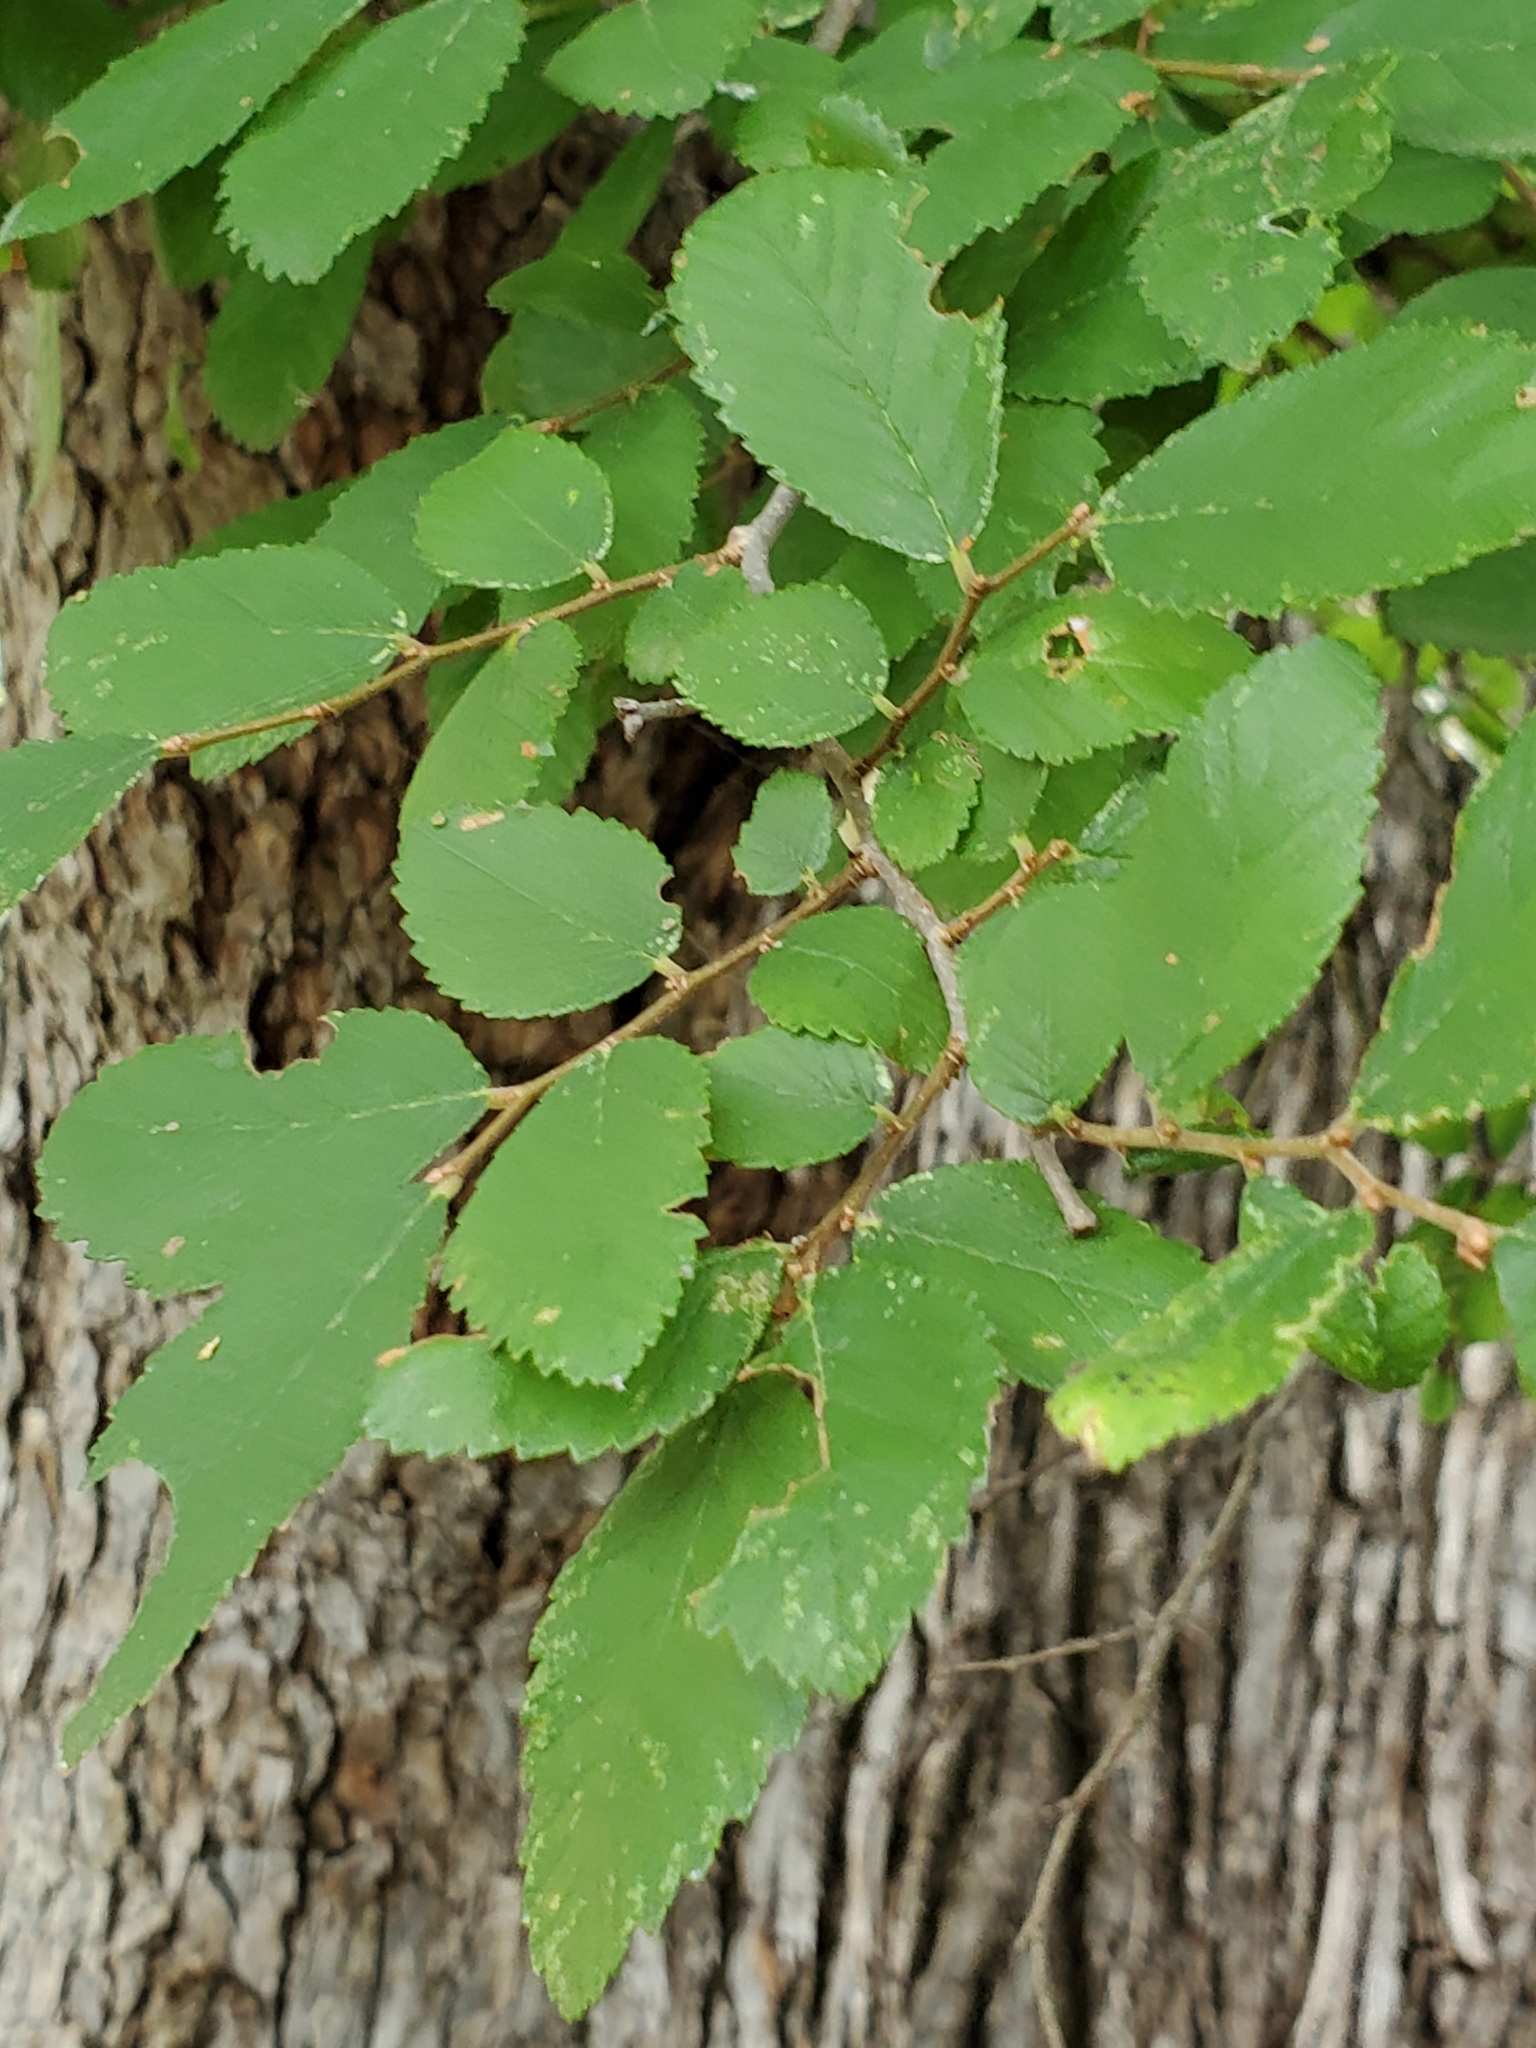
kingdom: Plantae
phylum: Tracheophyta
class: Magnoliopsida
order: Rosales
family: Ulmaceae
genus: Ulmus
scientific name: Ulmus crassifolia
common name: Basket elm
